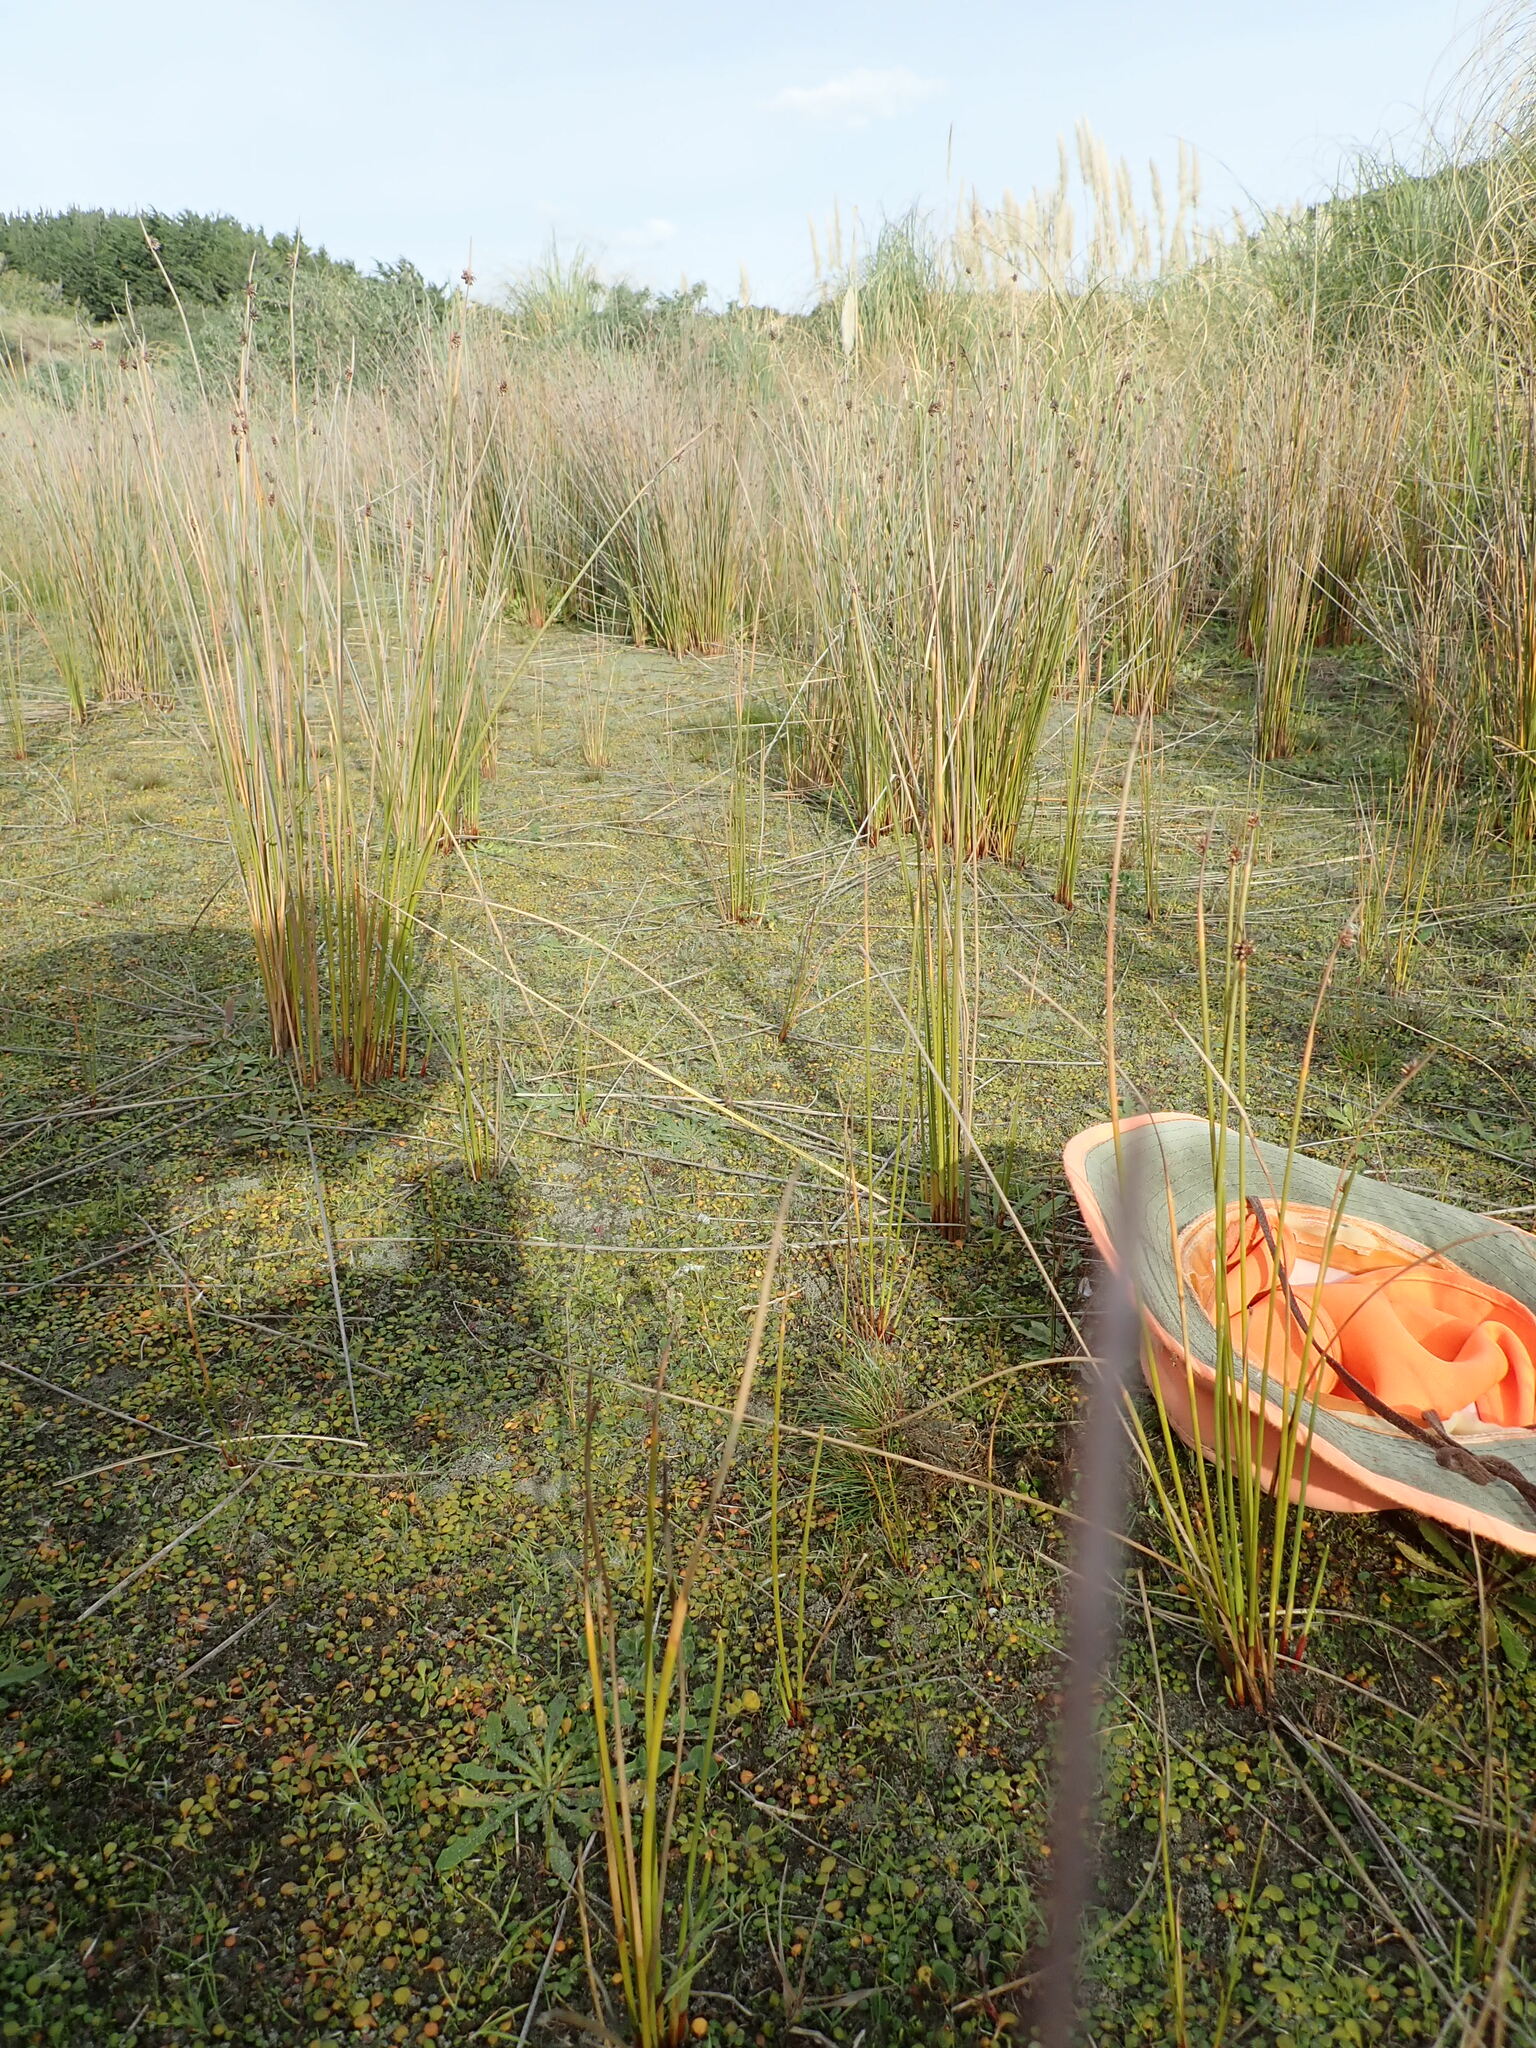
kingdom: Plantae
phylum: Tracheophyta
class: Liliopsida
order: Poales
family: Juncaceae
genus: Juncus
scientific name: Juncus bufonius
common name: Toad rush
